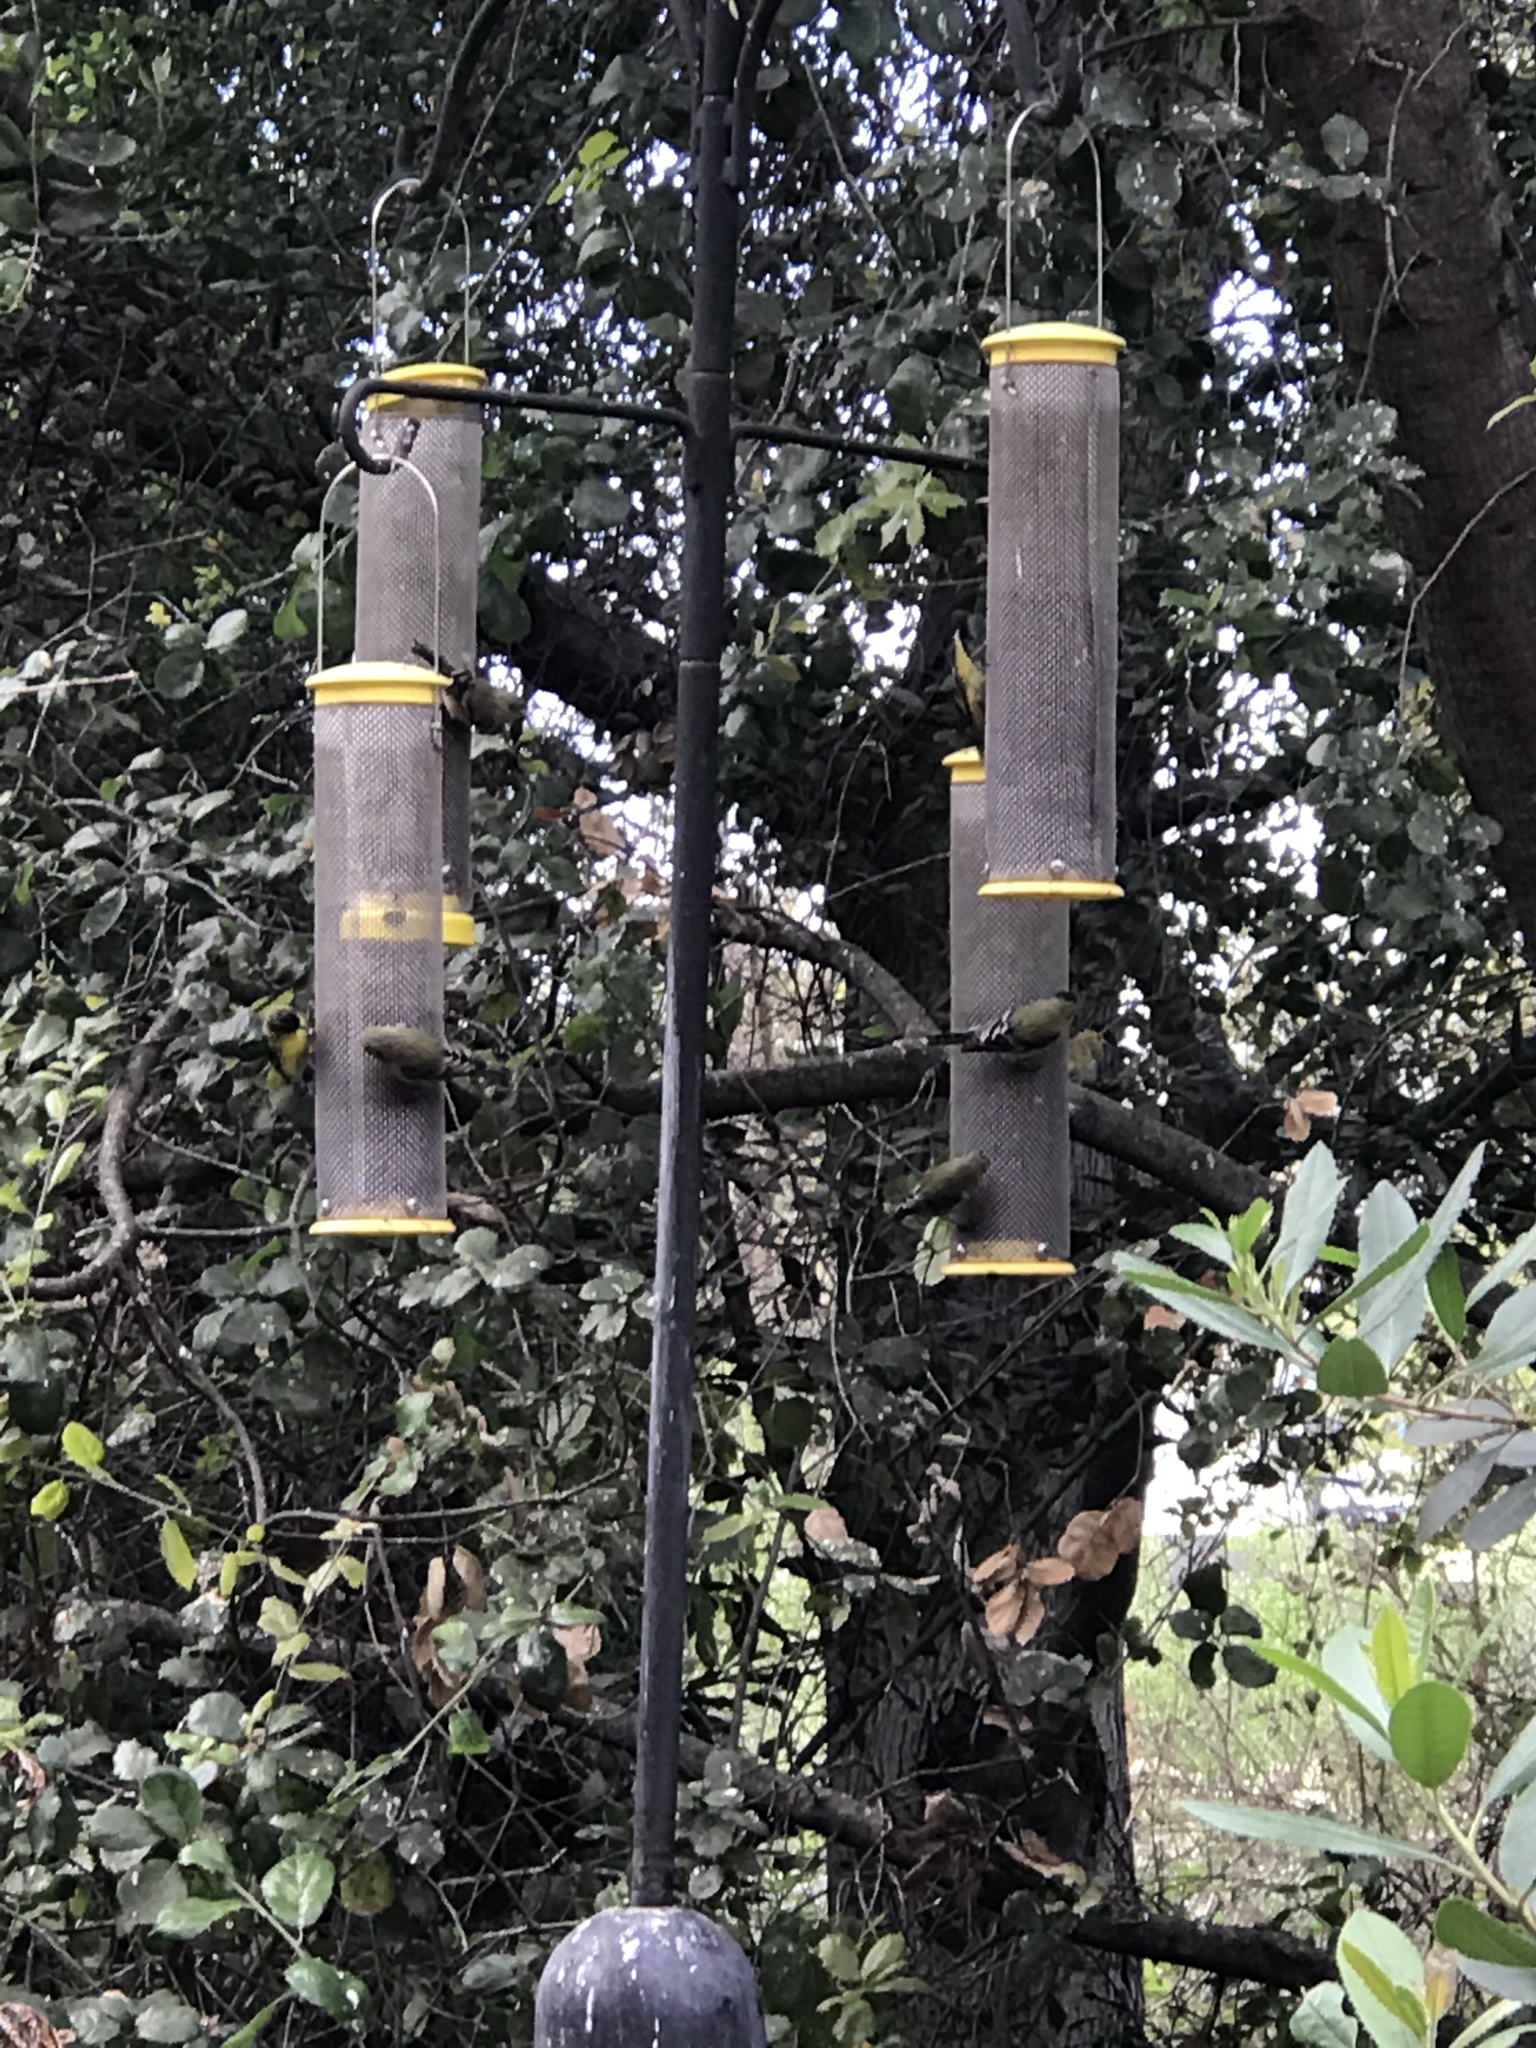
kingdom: Animalia
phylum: Chordata
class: Aves
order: Passeriformes
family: Fringillidae
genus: Spinus
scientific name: Spinus psaltria
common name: Lesser goldfinch
